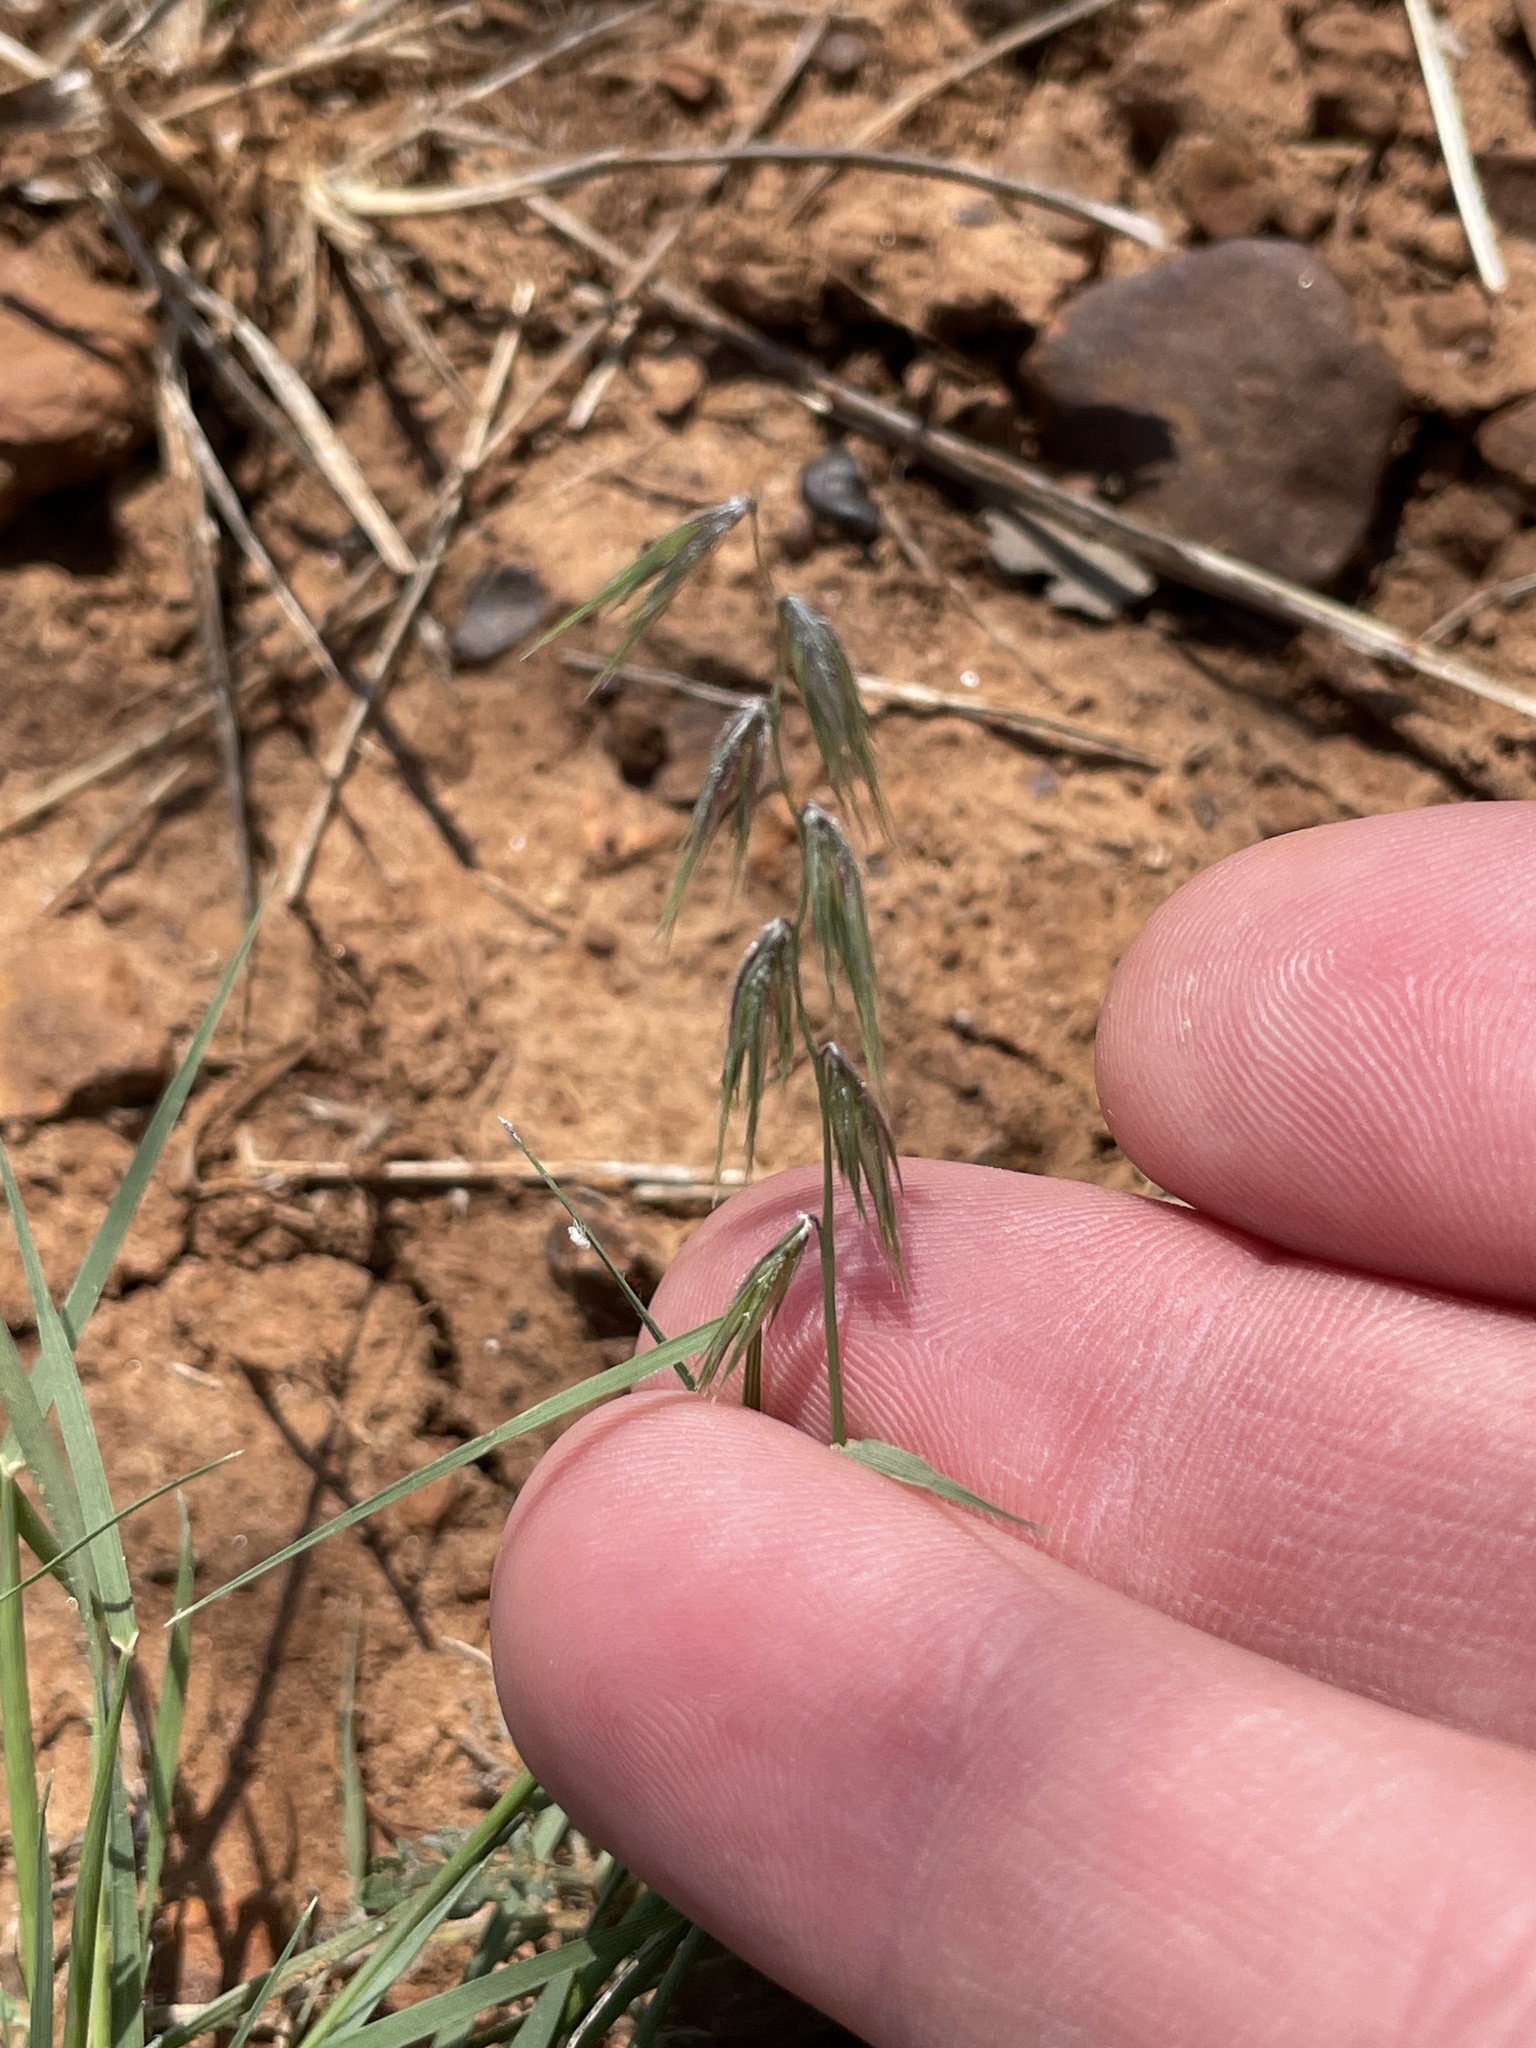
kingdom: Plantae
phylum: Tracheophyta
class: Liliopsida
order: Poales
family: Poaceae
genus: Bouteloua
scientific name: Bouteloua rigidiseta
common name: Texas grama
